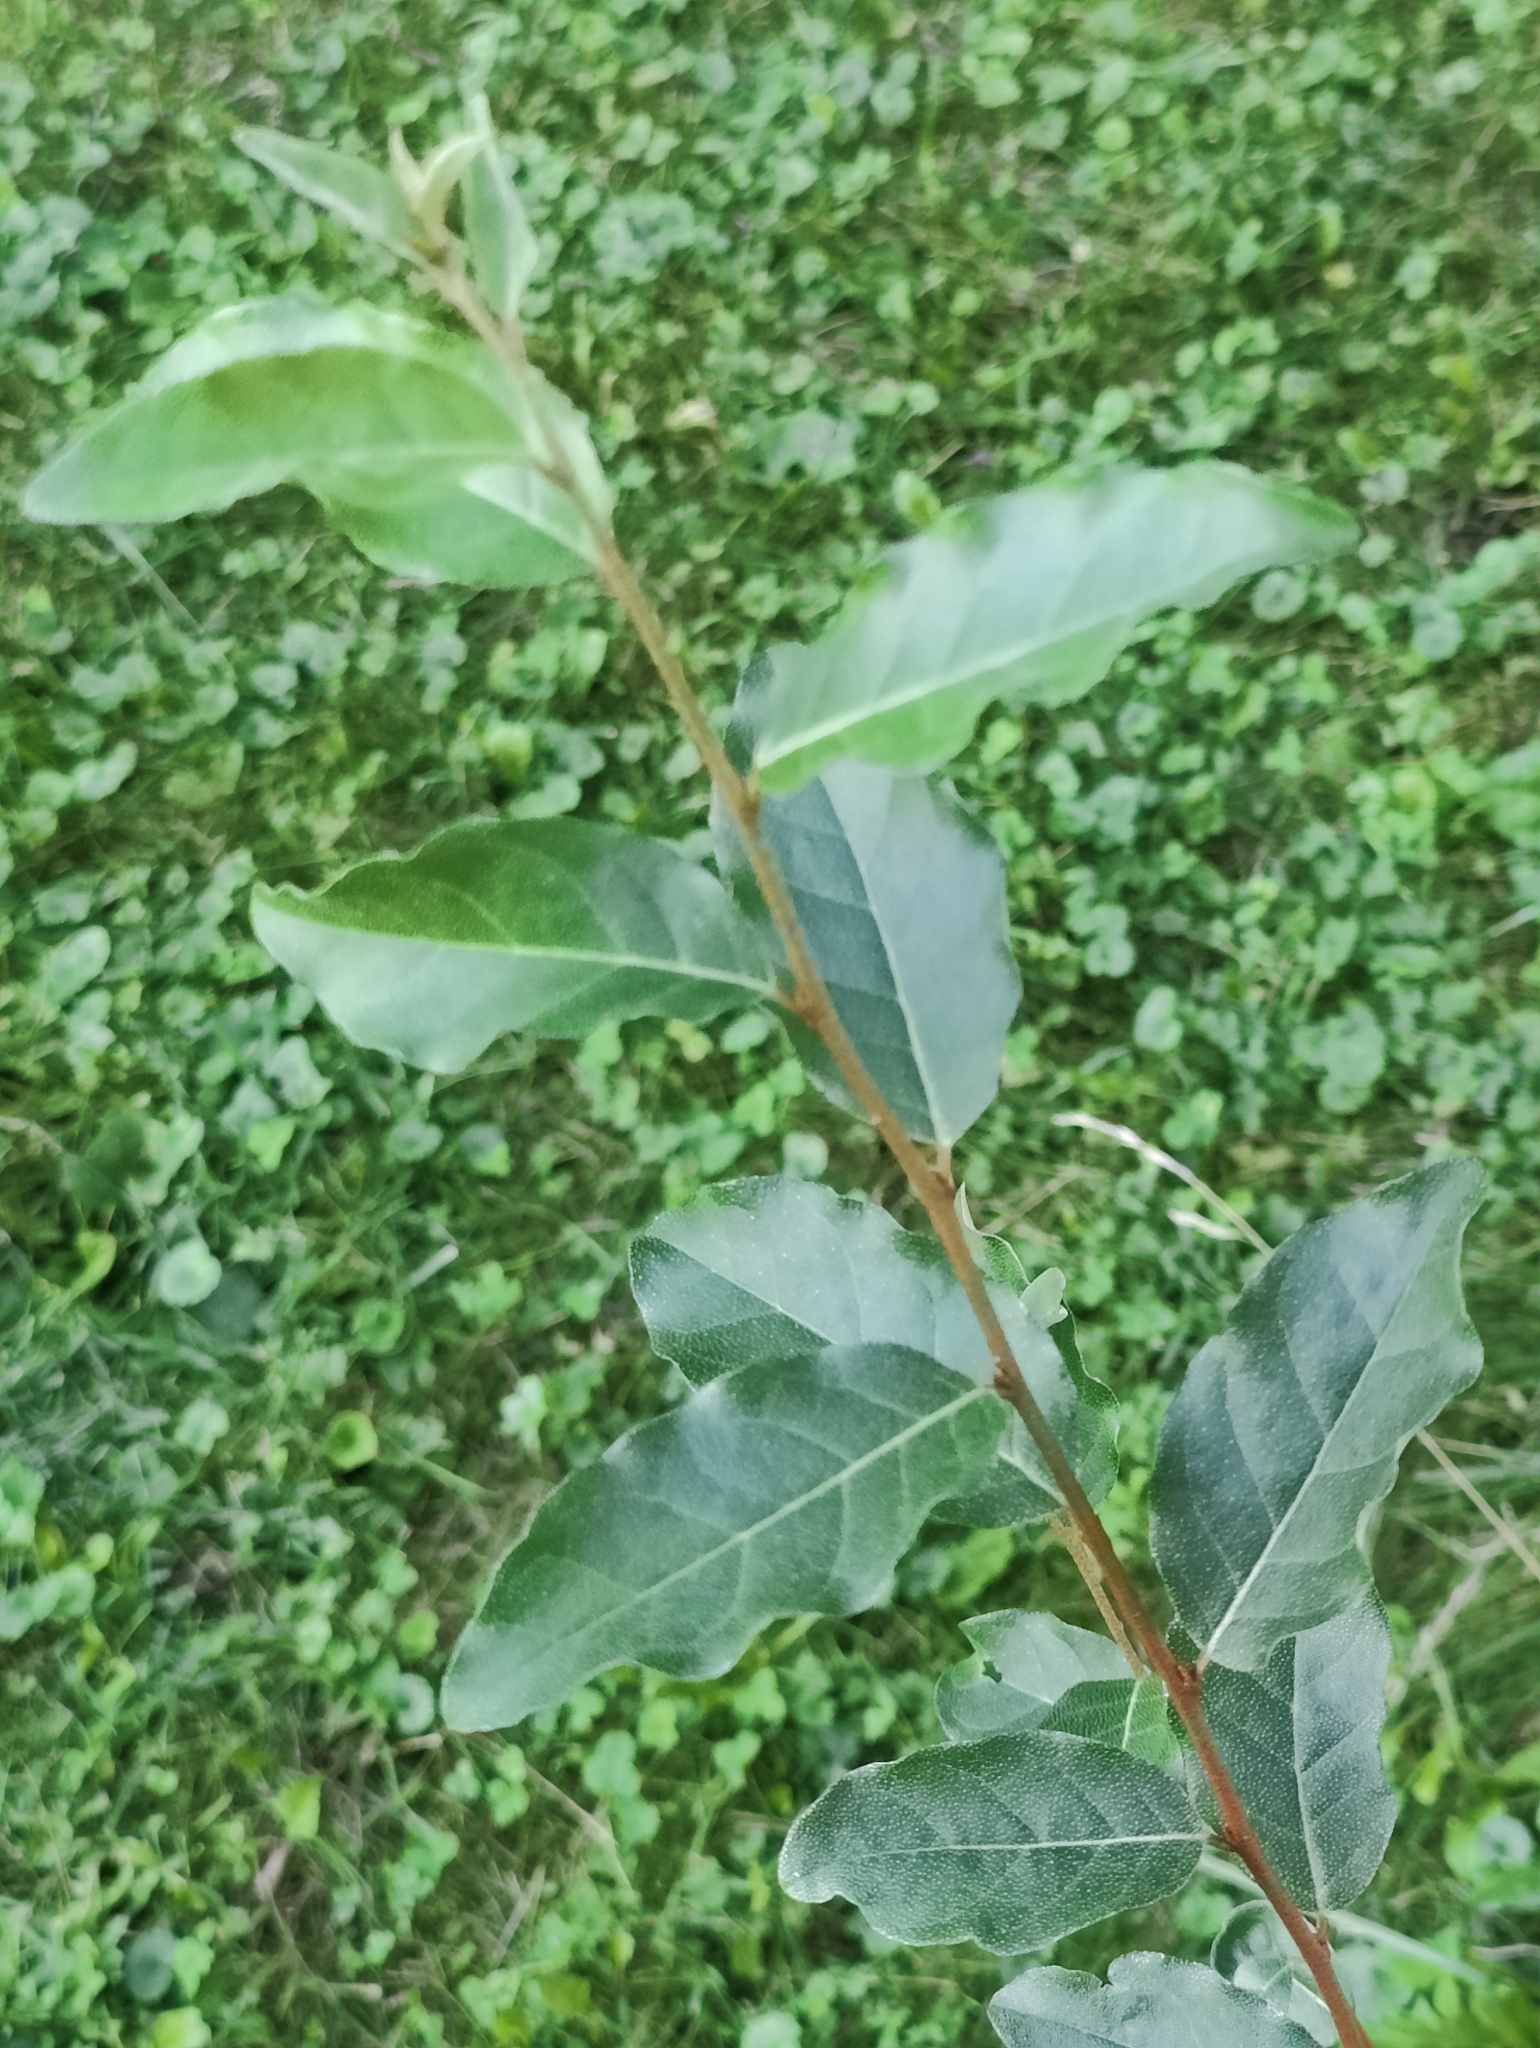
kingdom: Plantae
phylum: Tracheophyta
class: Magnoliopsida
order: Rosales
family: Elaeagnaceae
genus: Elaeagnus
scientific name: Elaeagnus umbellata
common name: Autumn olive
